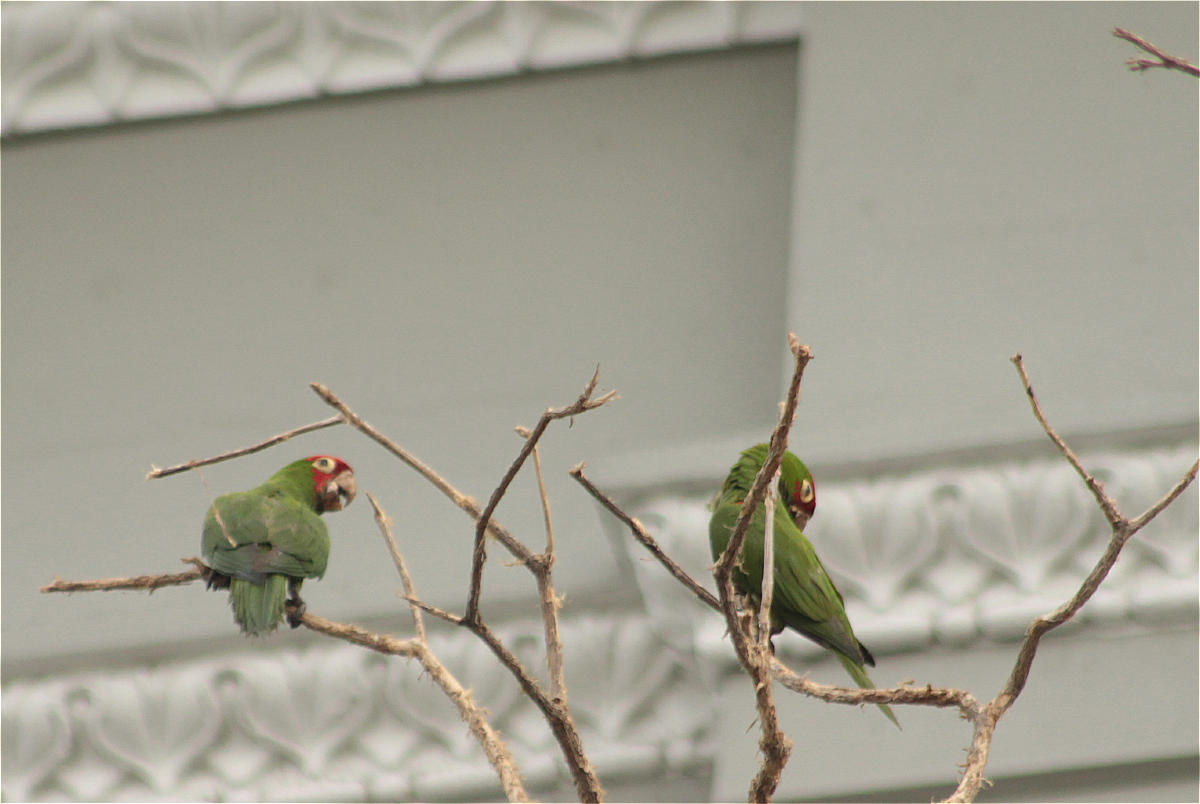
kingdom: Animalia
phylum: Chordata
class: Aves
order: Psittaciformes
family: Psittacidae
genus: Aratinga
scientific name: Aratinga erythrogenys
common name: Red-masked parakeet
